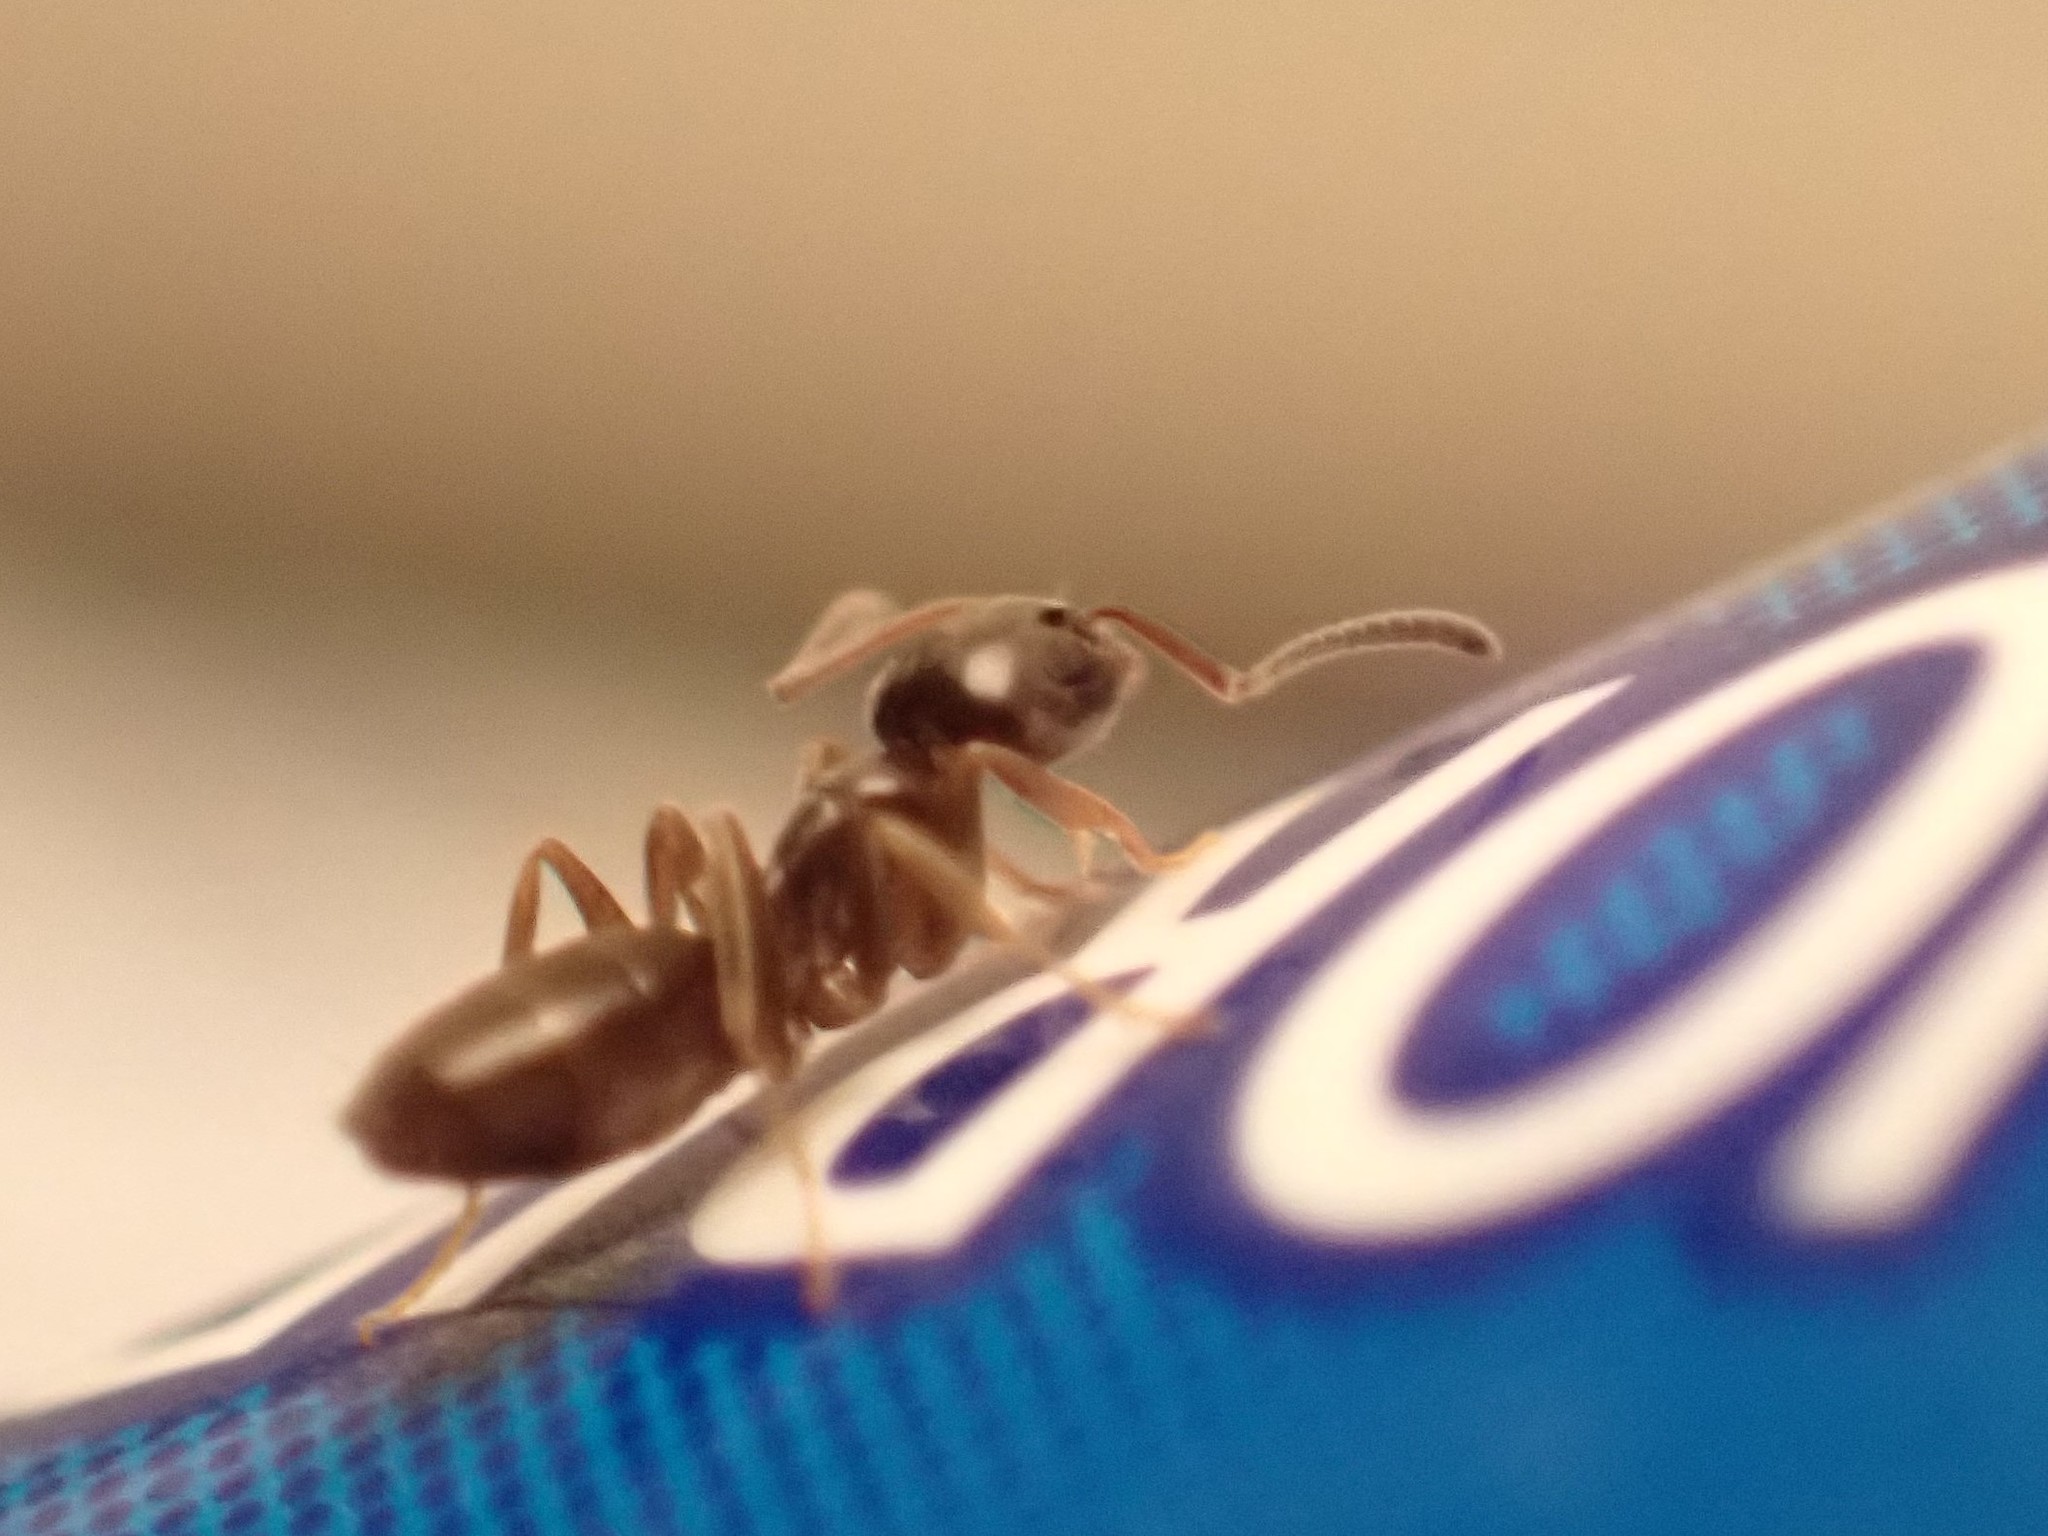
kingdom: Animalia
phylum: Arthropoda
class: Insecta
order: Hymenoptera
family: Formicidae
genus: Tapinoma
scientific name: Tapinoma sessile
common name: Odorous house ant
